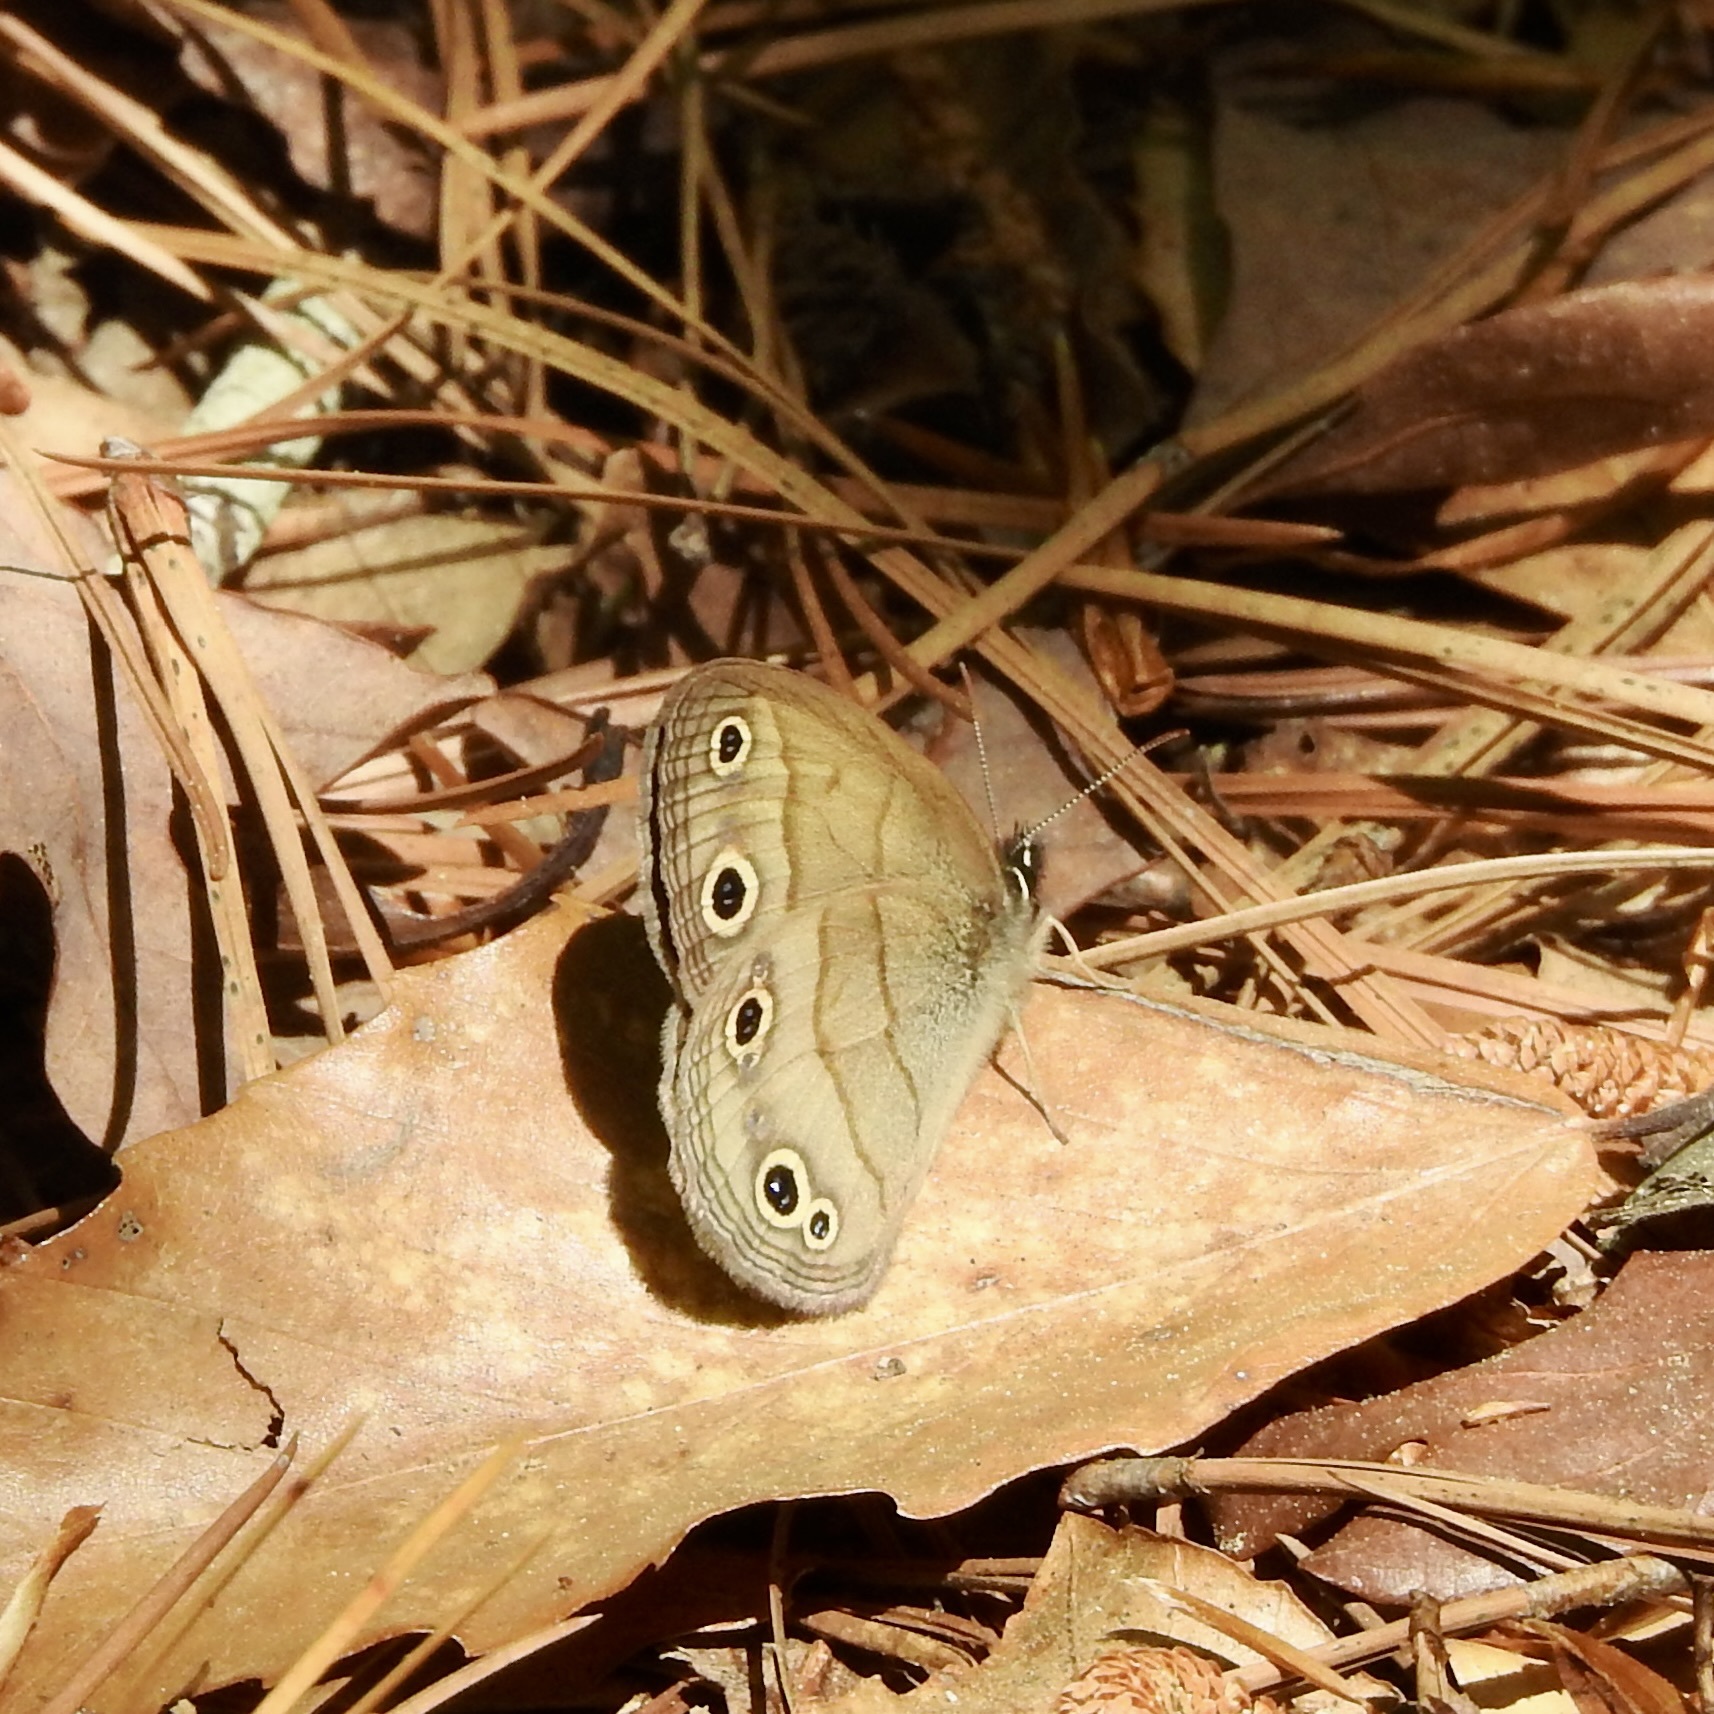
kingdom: Animalia
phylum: Arthropoda
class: Insecta
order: Lepidoptera
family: Nymphalidae
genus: Euptychia
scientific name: Euptychia cymela
